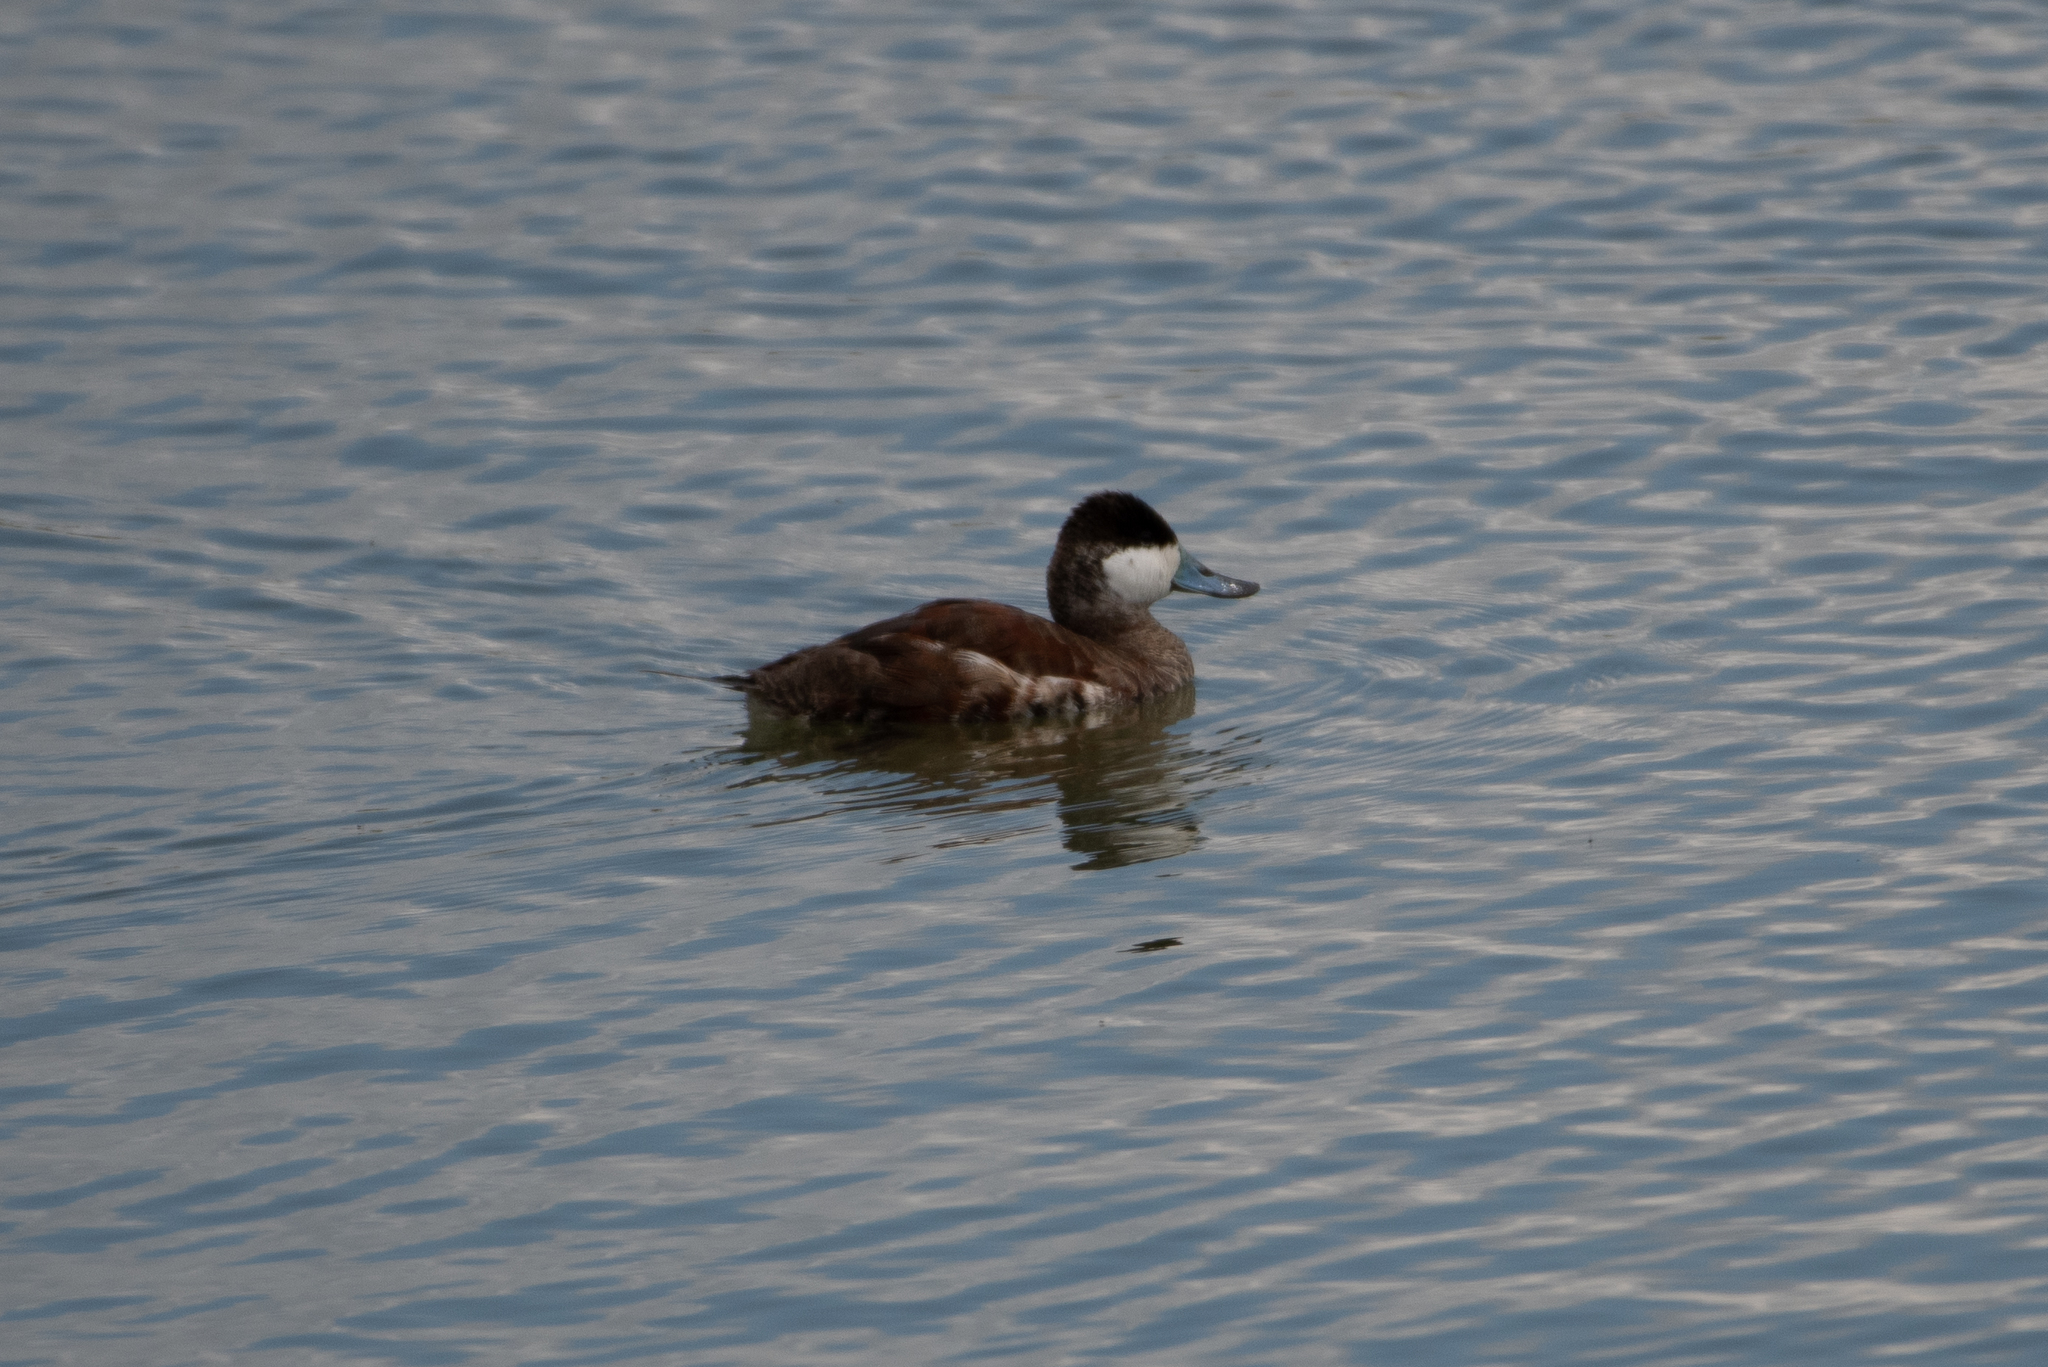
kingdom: Animalia
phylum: Chordata
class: Aves
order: Anseriformes
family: Anatidae
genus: Oxyura
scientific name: Oxyura jamaicensis
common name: Ruddy duck
